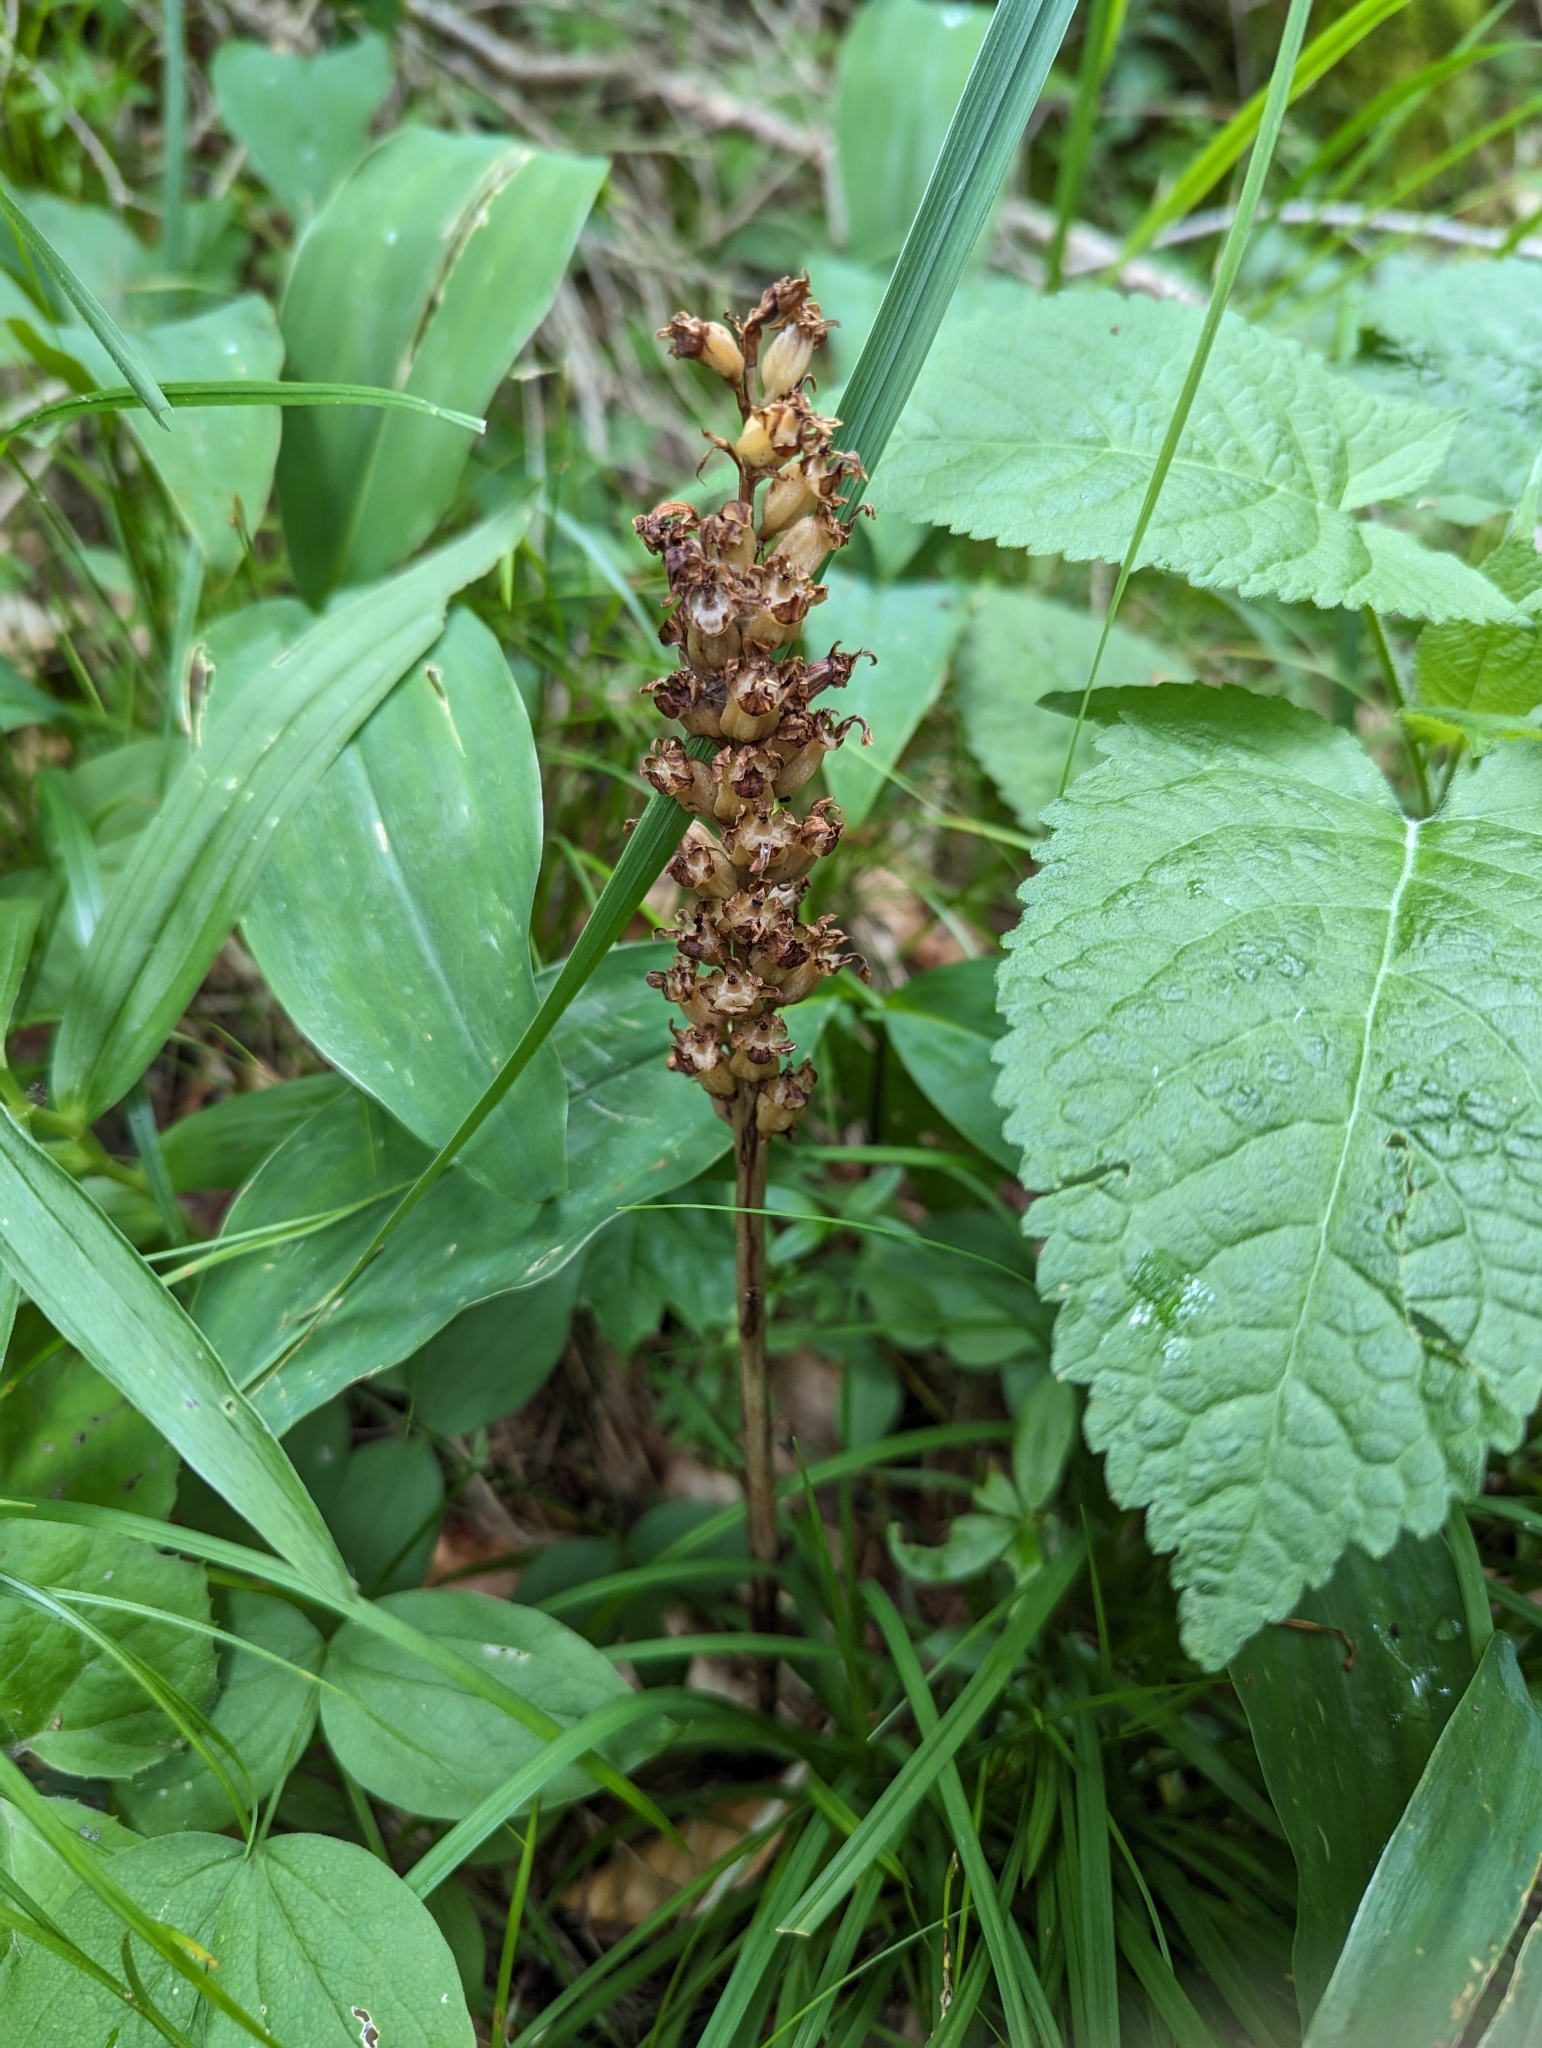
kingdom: Plantae
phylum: Tracheophyta
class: Liliopsida
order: Asparagales
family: Orchidaceae
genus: Neottia
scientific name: Neottia nidus-avis
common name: Bird's-nest orchid
